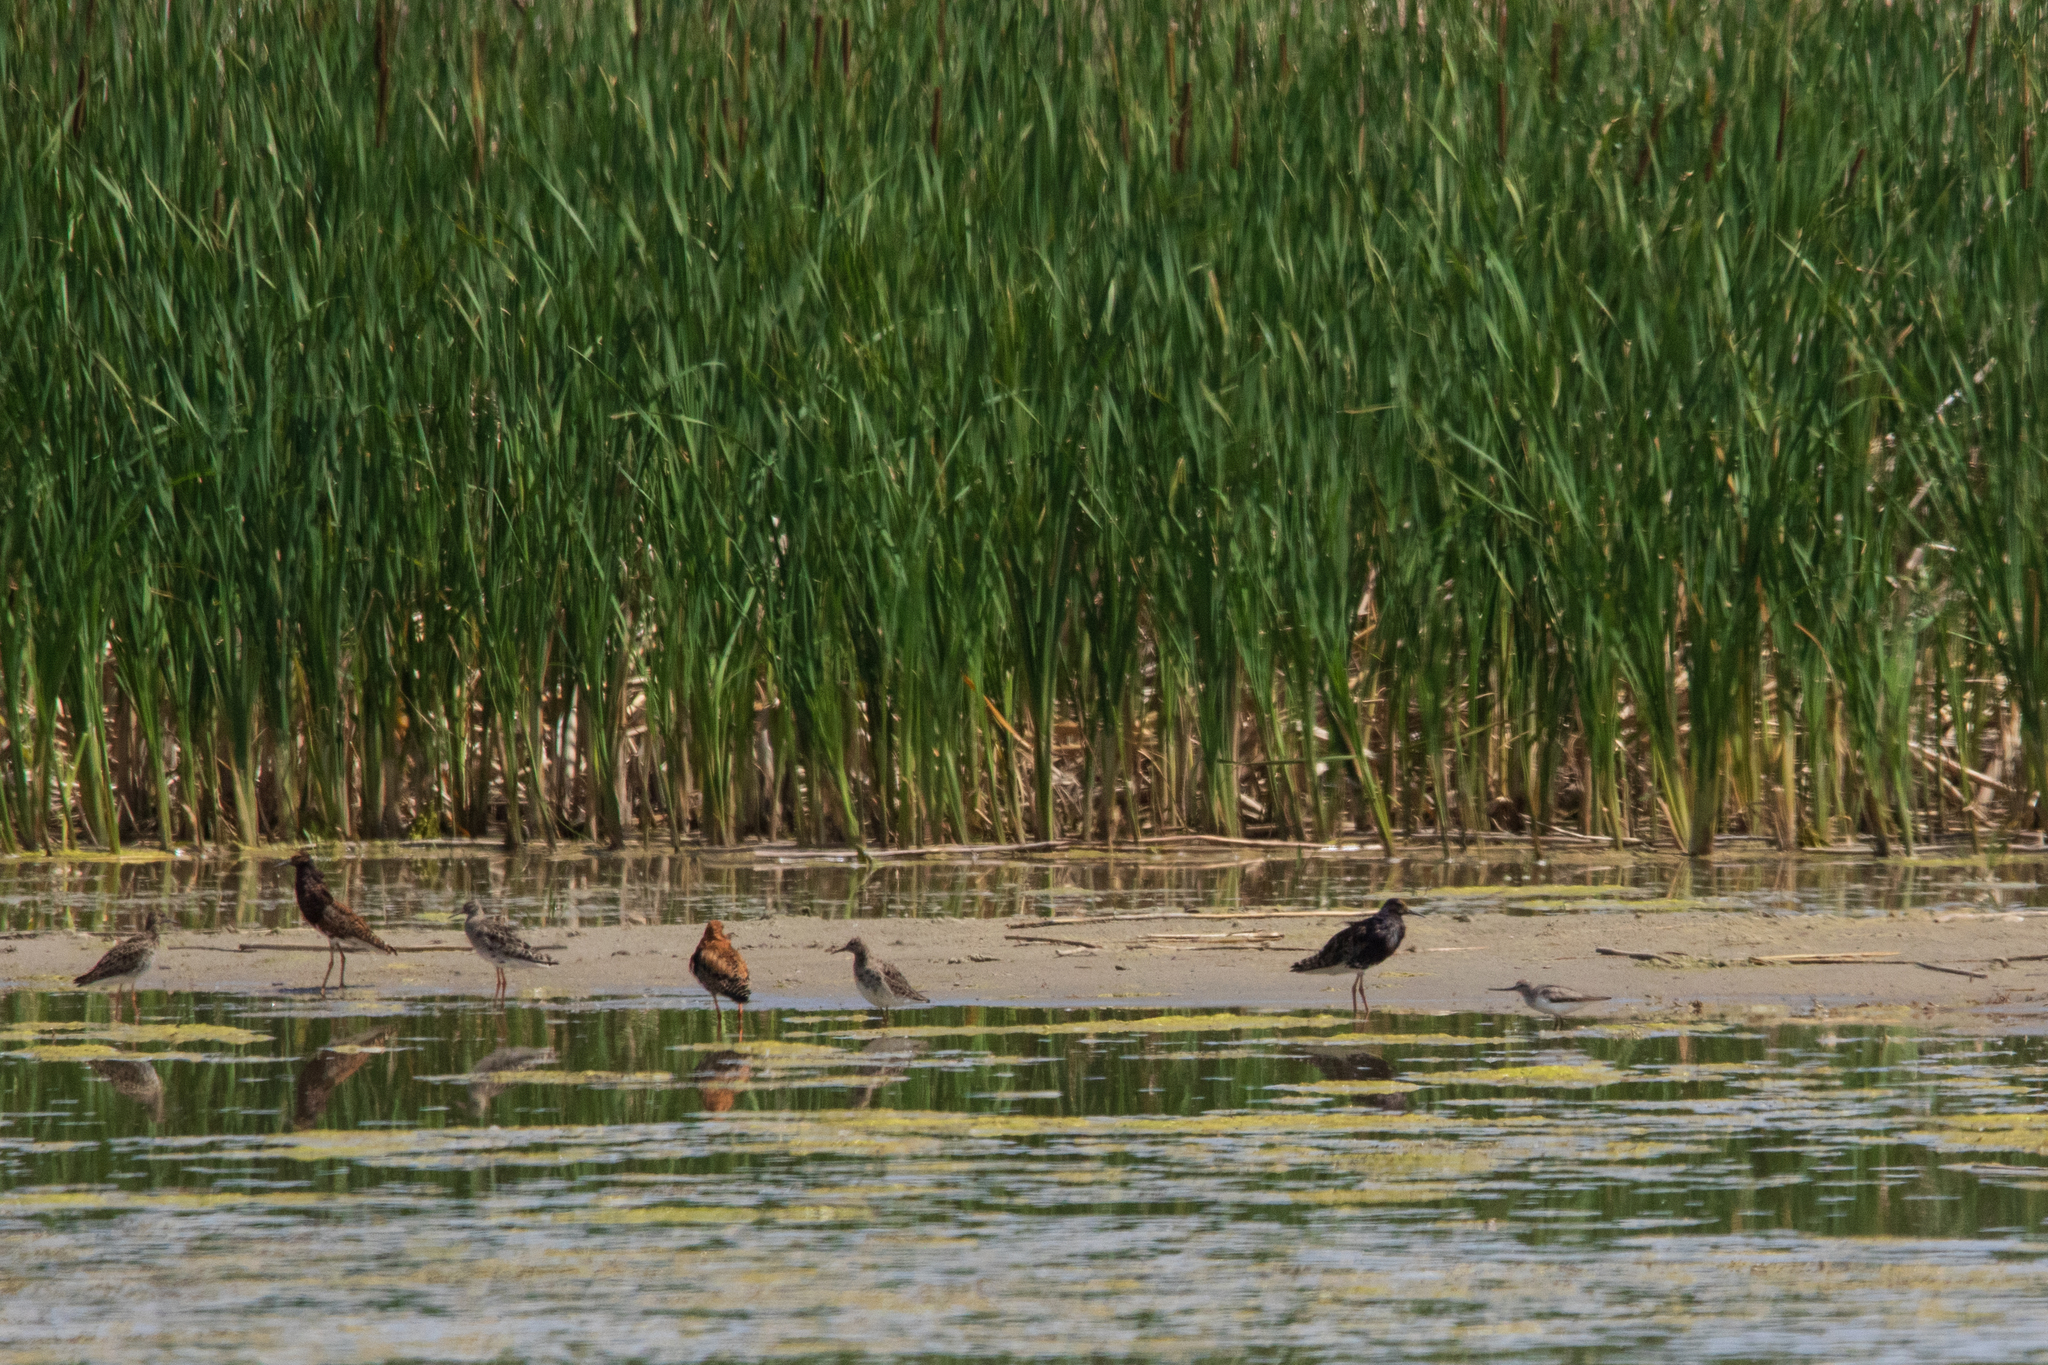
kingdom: Animalia
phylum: Chordata
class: Aves
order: Charadriiformes
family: Scolopacidae
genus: Calidris
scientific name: Calidris pugnax
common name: Ruff
